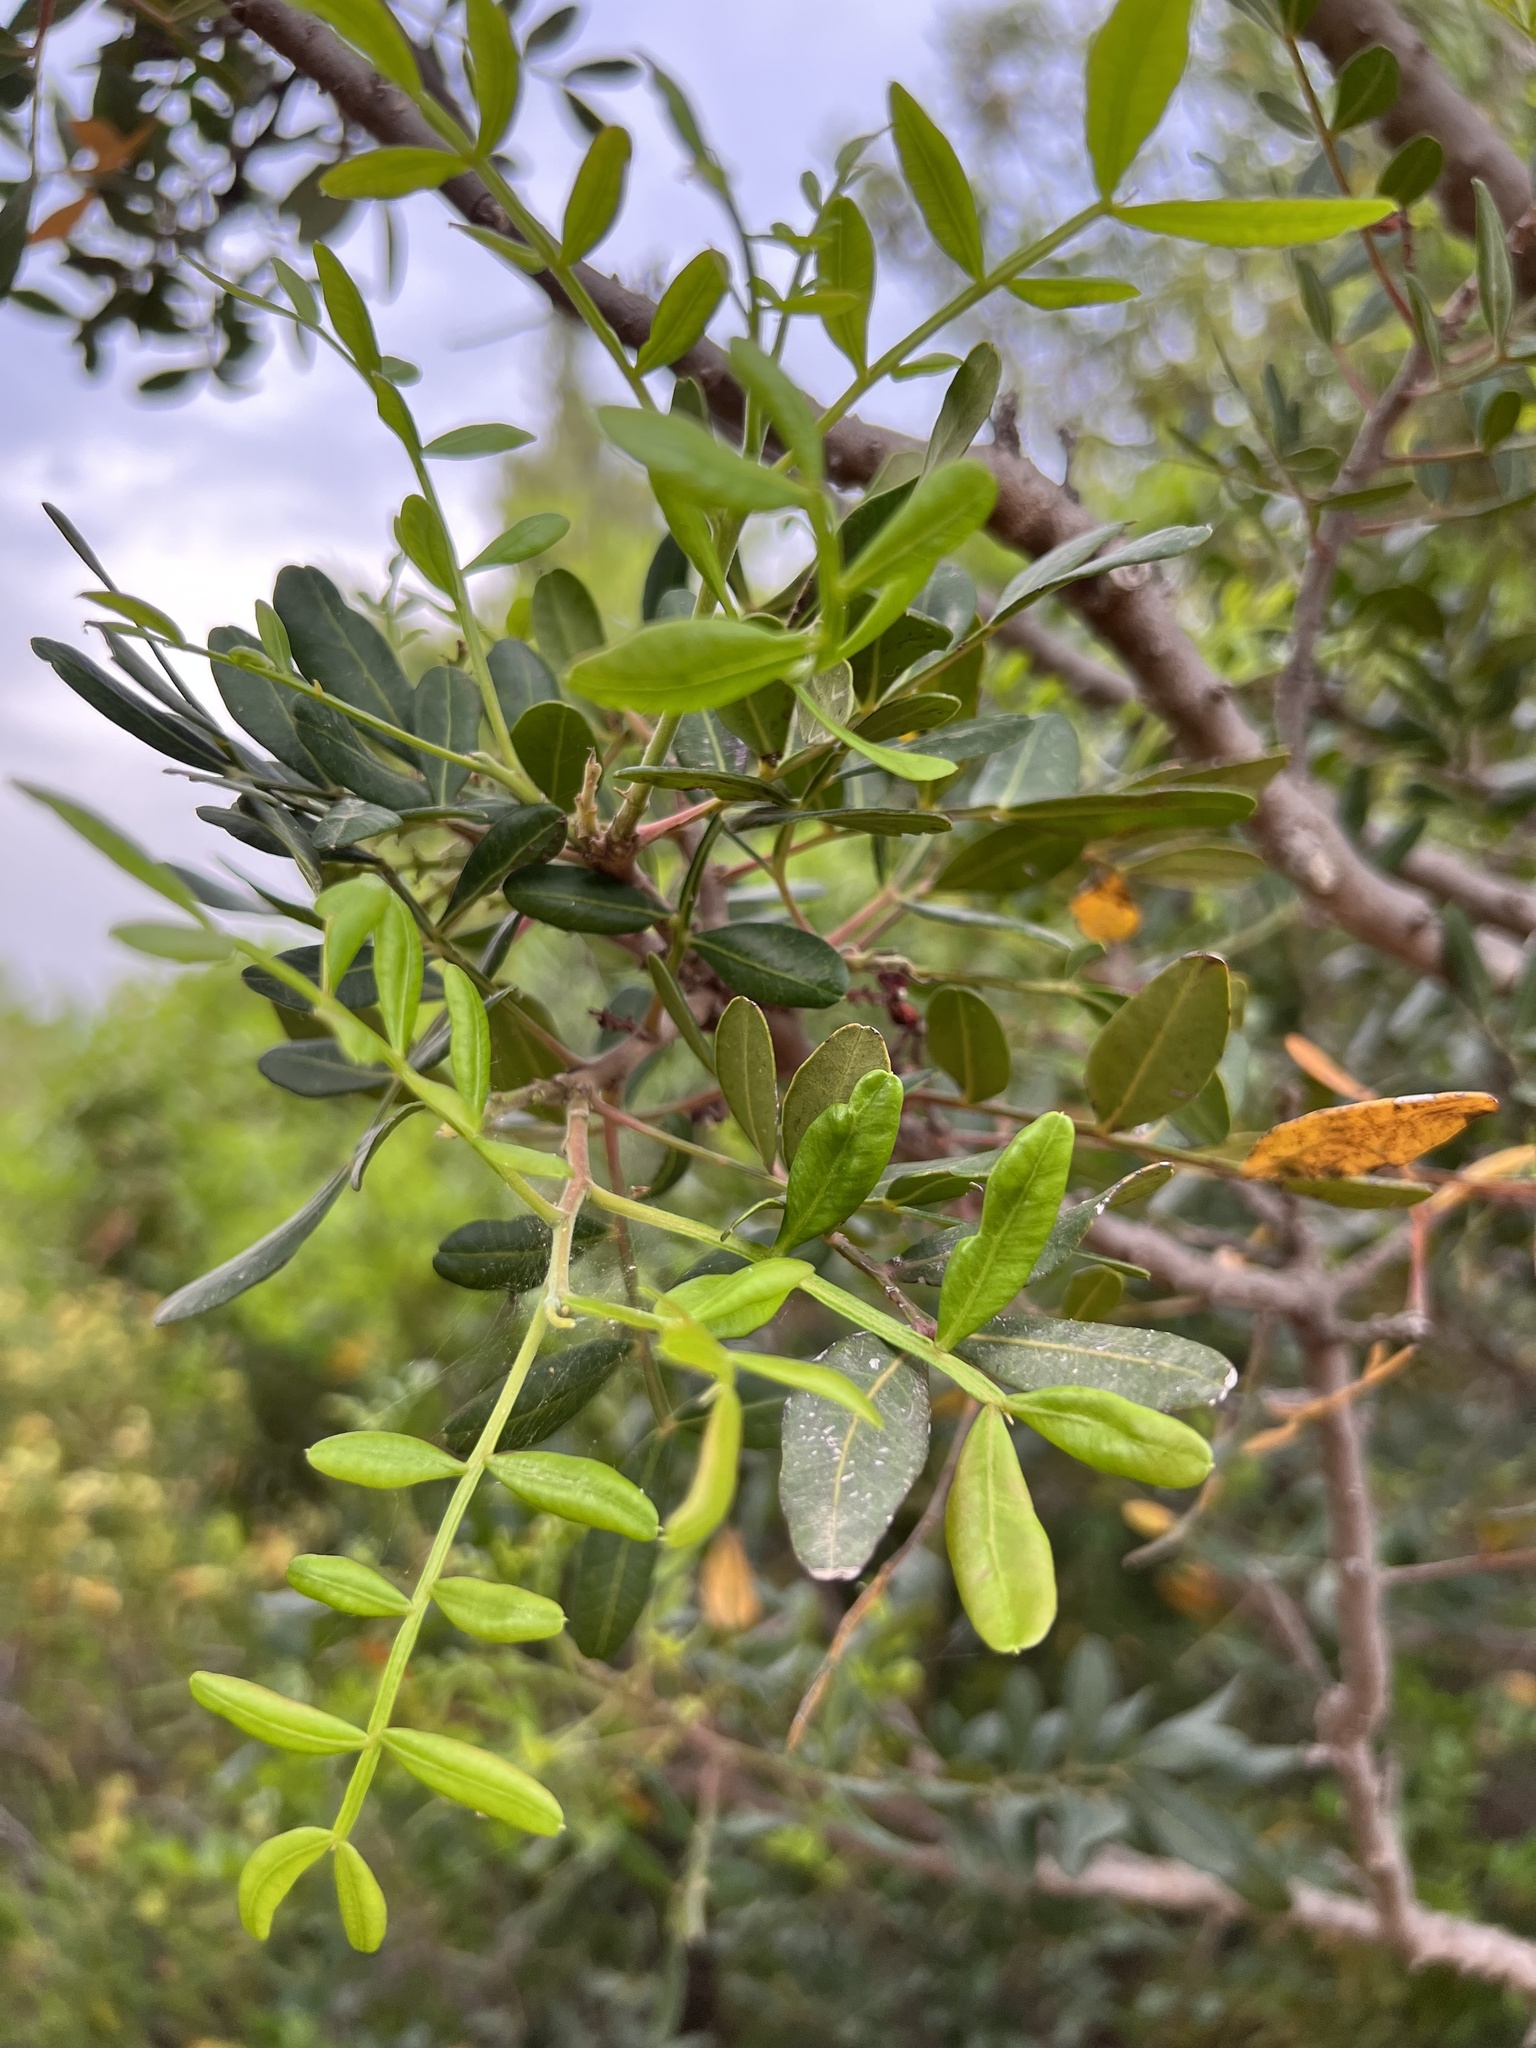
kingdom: Plantae
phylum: Tracheophyta
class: Magnoliopsida
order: Sapindales
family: Anacardiaceae
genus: Pistacia
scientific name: Pistacia lentiscus
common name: Lentisk
